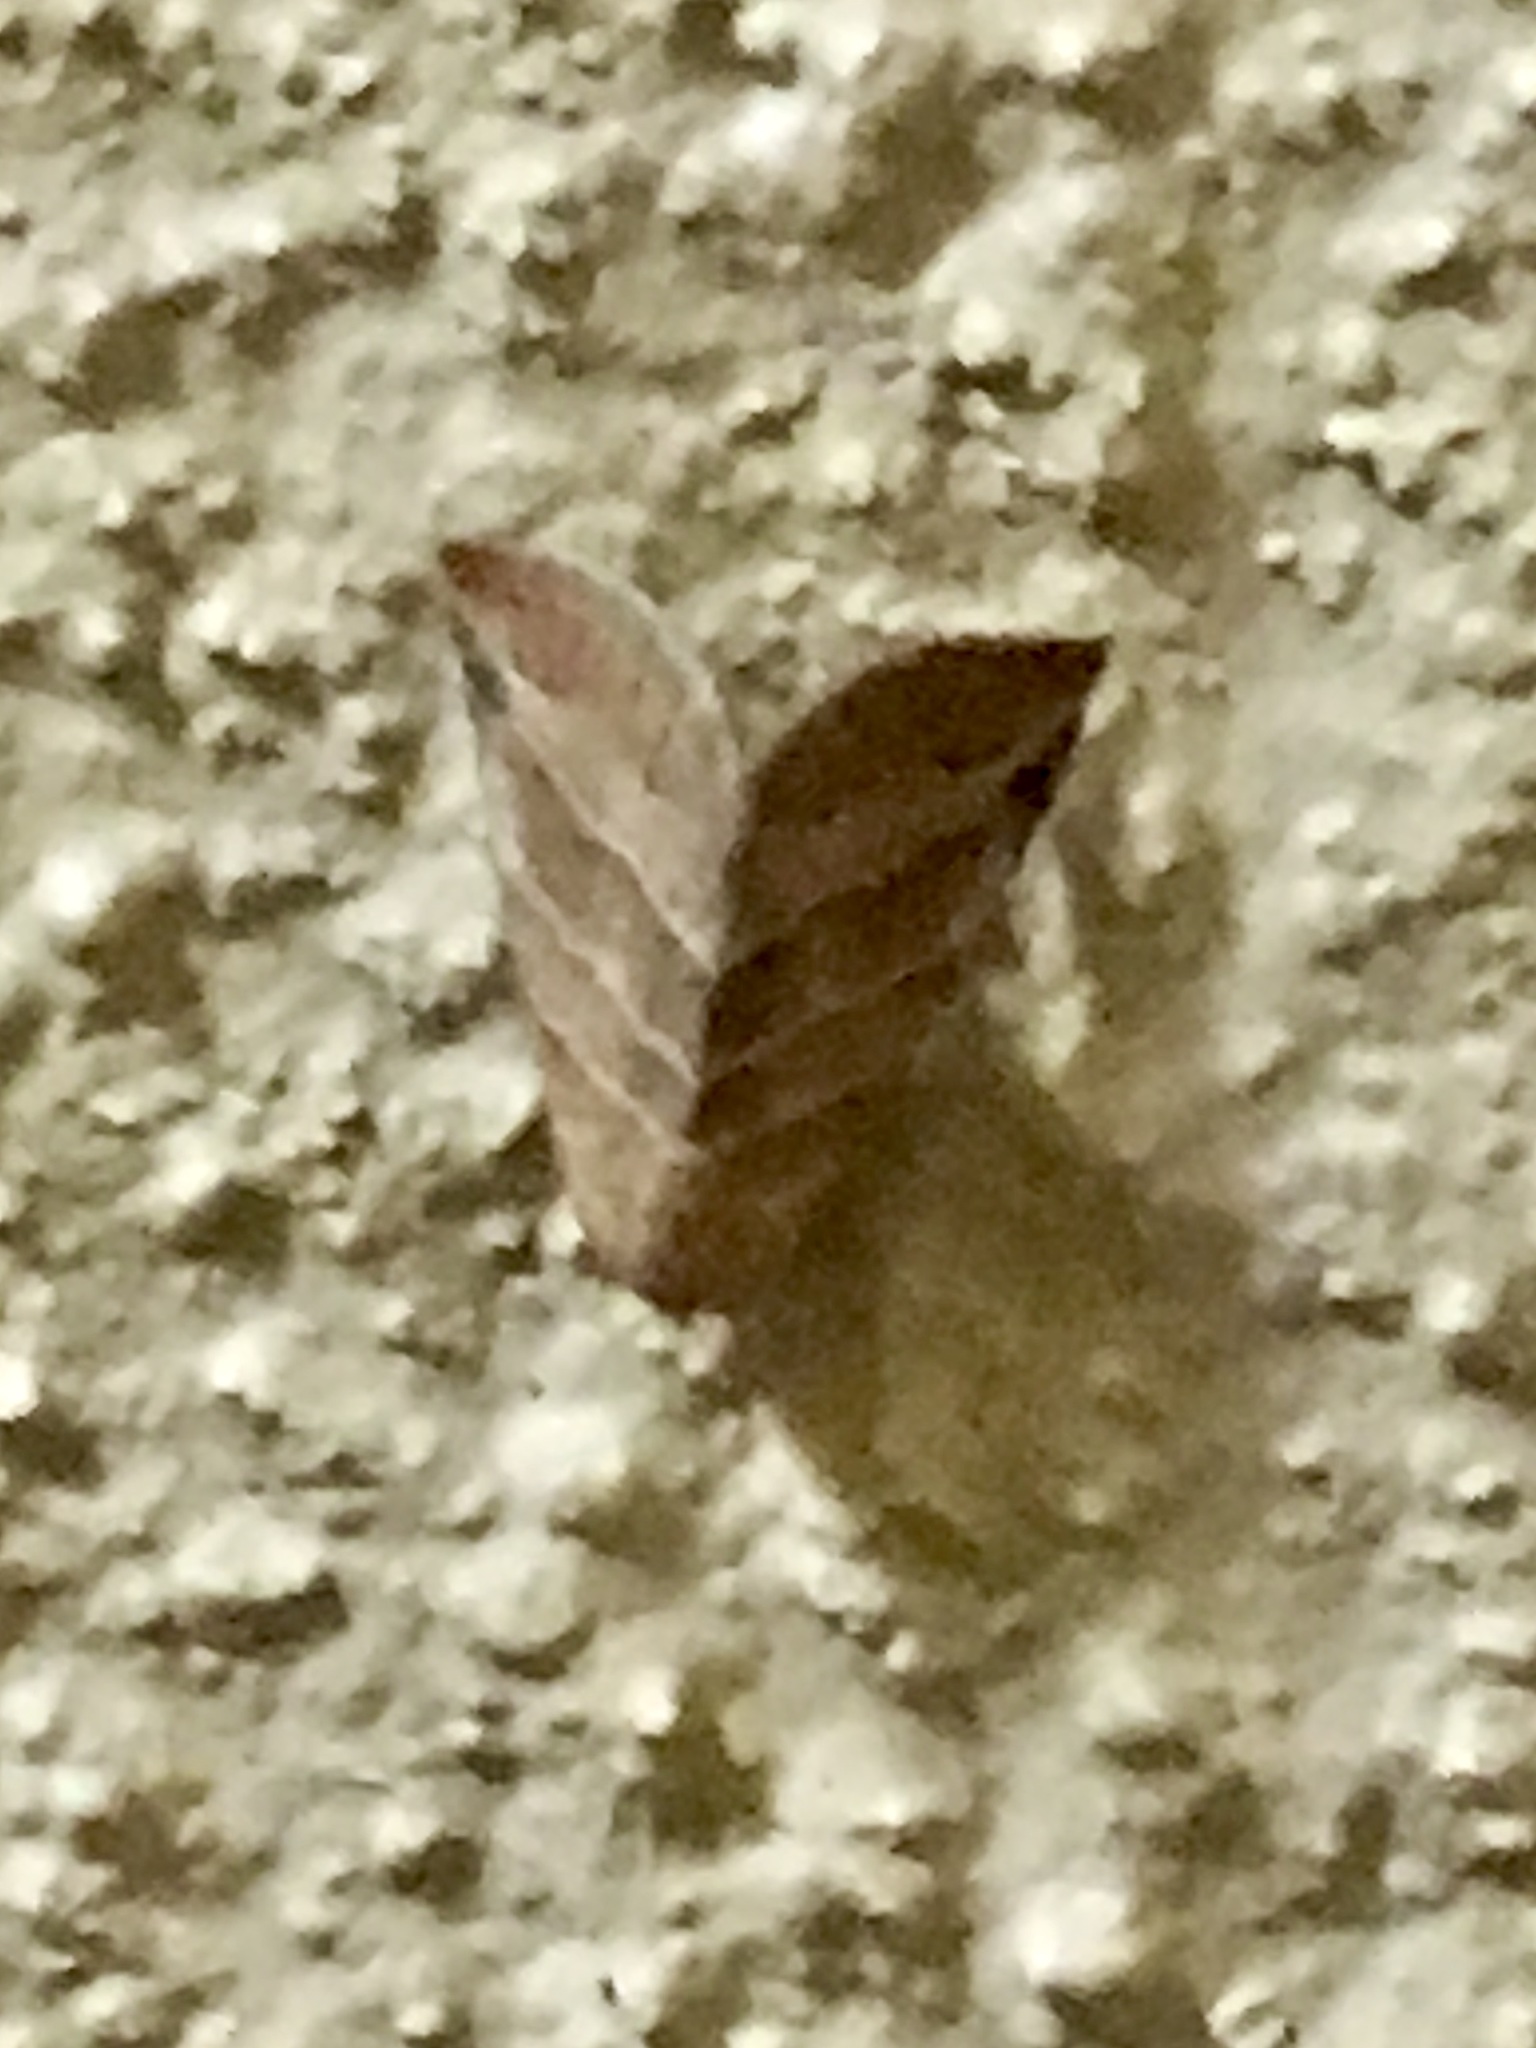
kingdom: Animalia
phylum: Arthropoda
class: Insecta
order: Lepidoptera
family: Noctuidae
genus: Eublemma
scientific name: Eublemma baccatrix
